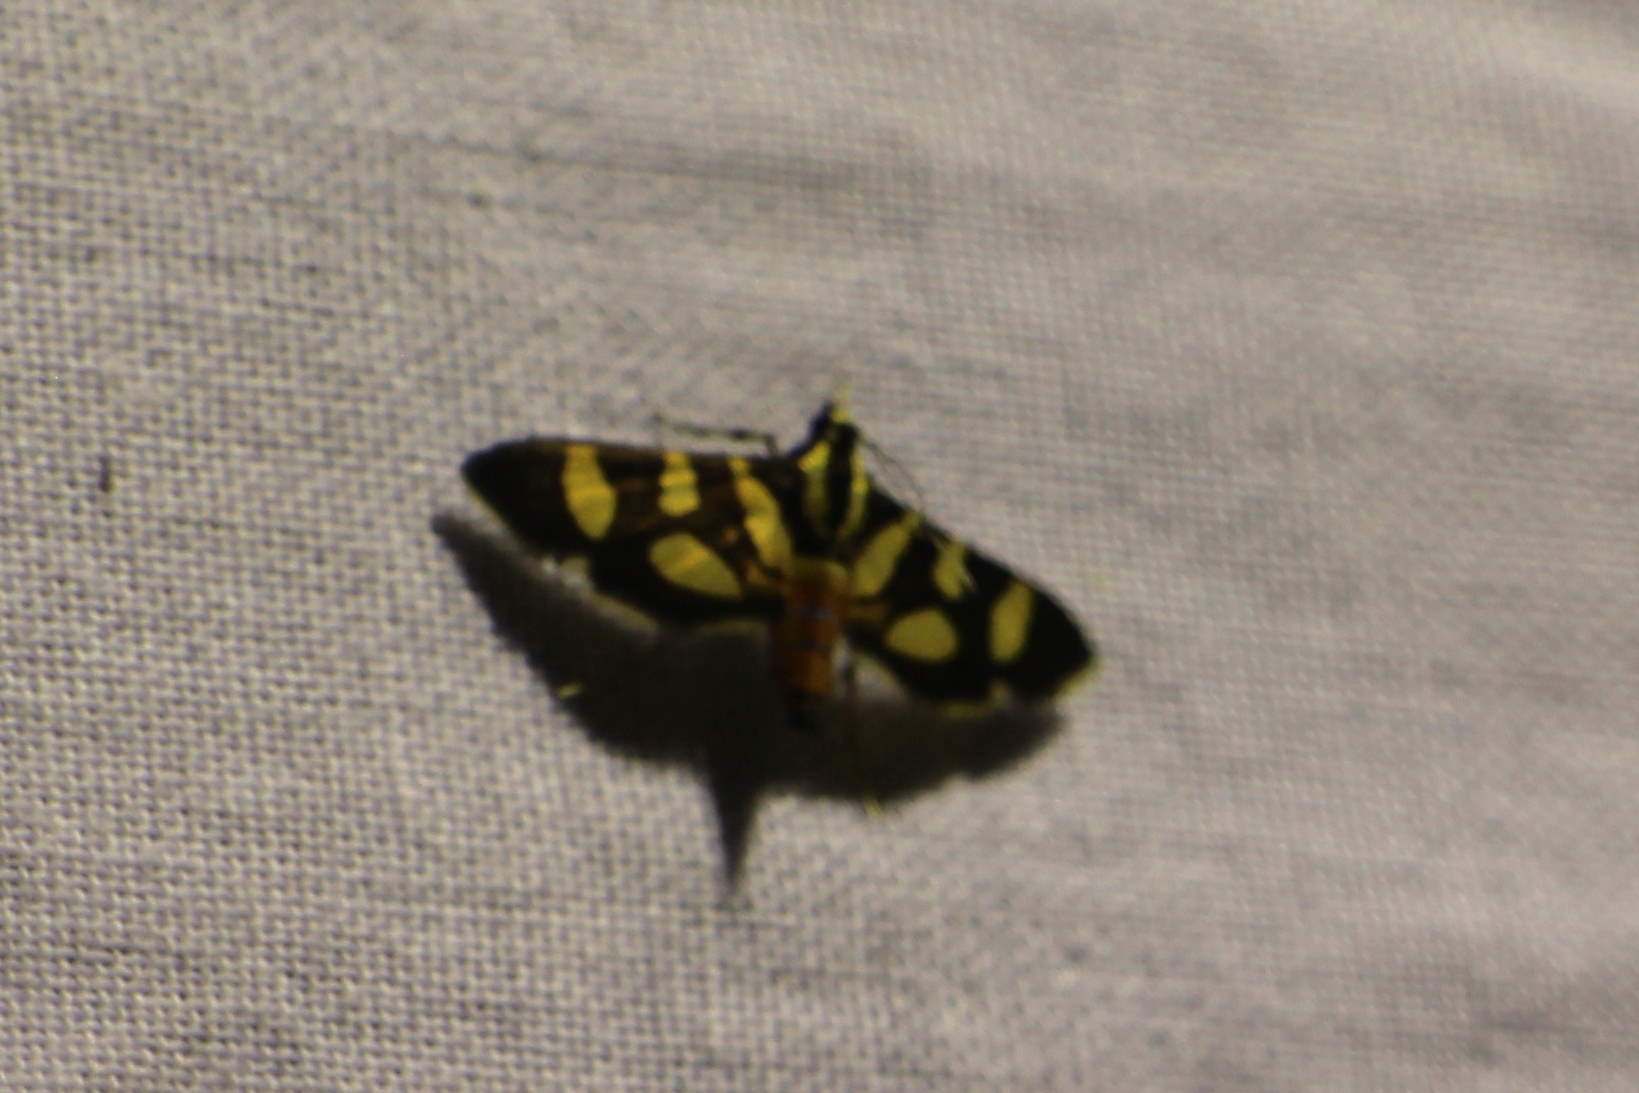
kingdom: Animalia
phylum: Arthropoda
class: Insecta
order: Lepidoptera
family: Crambidae
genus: Syngamia
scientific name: Syngamia florella
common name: Orange-spotted flower moth
